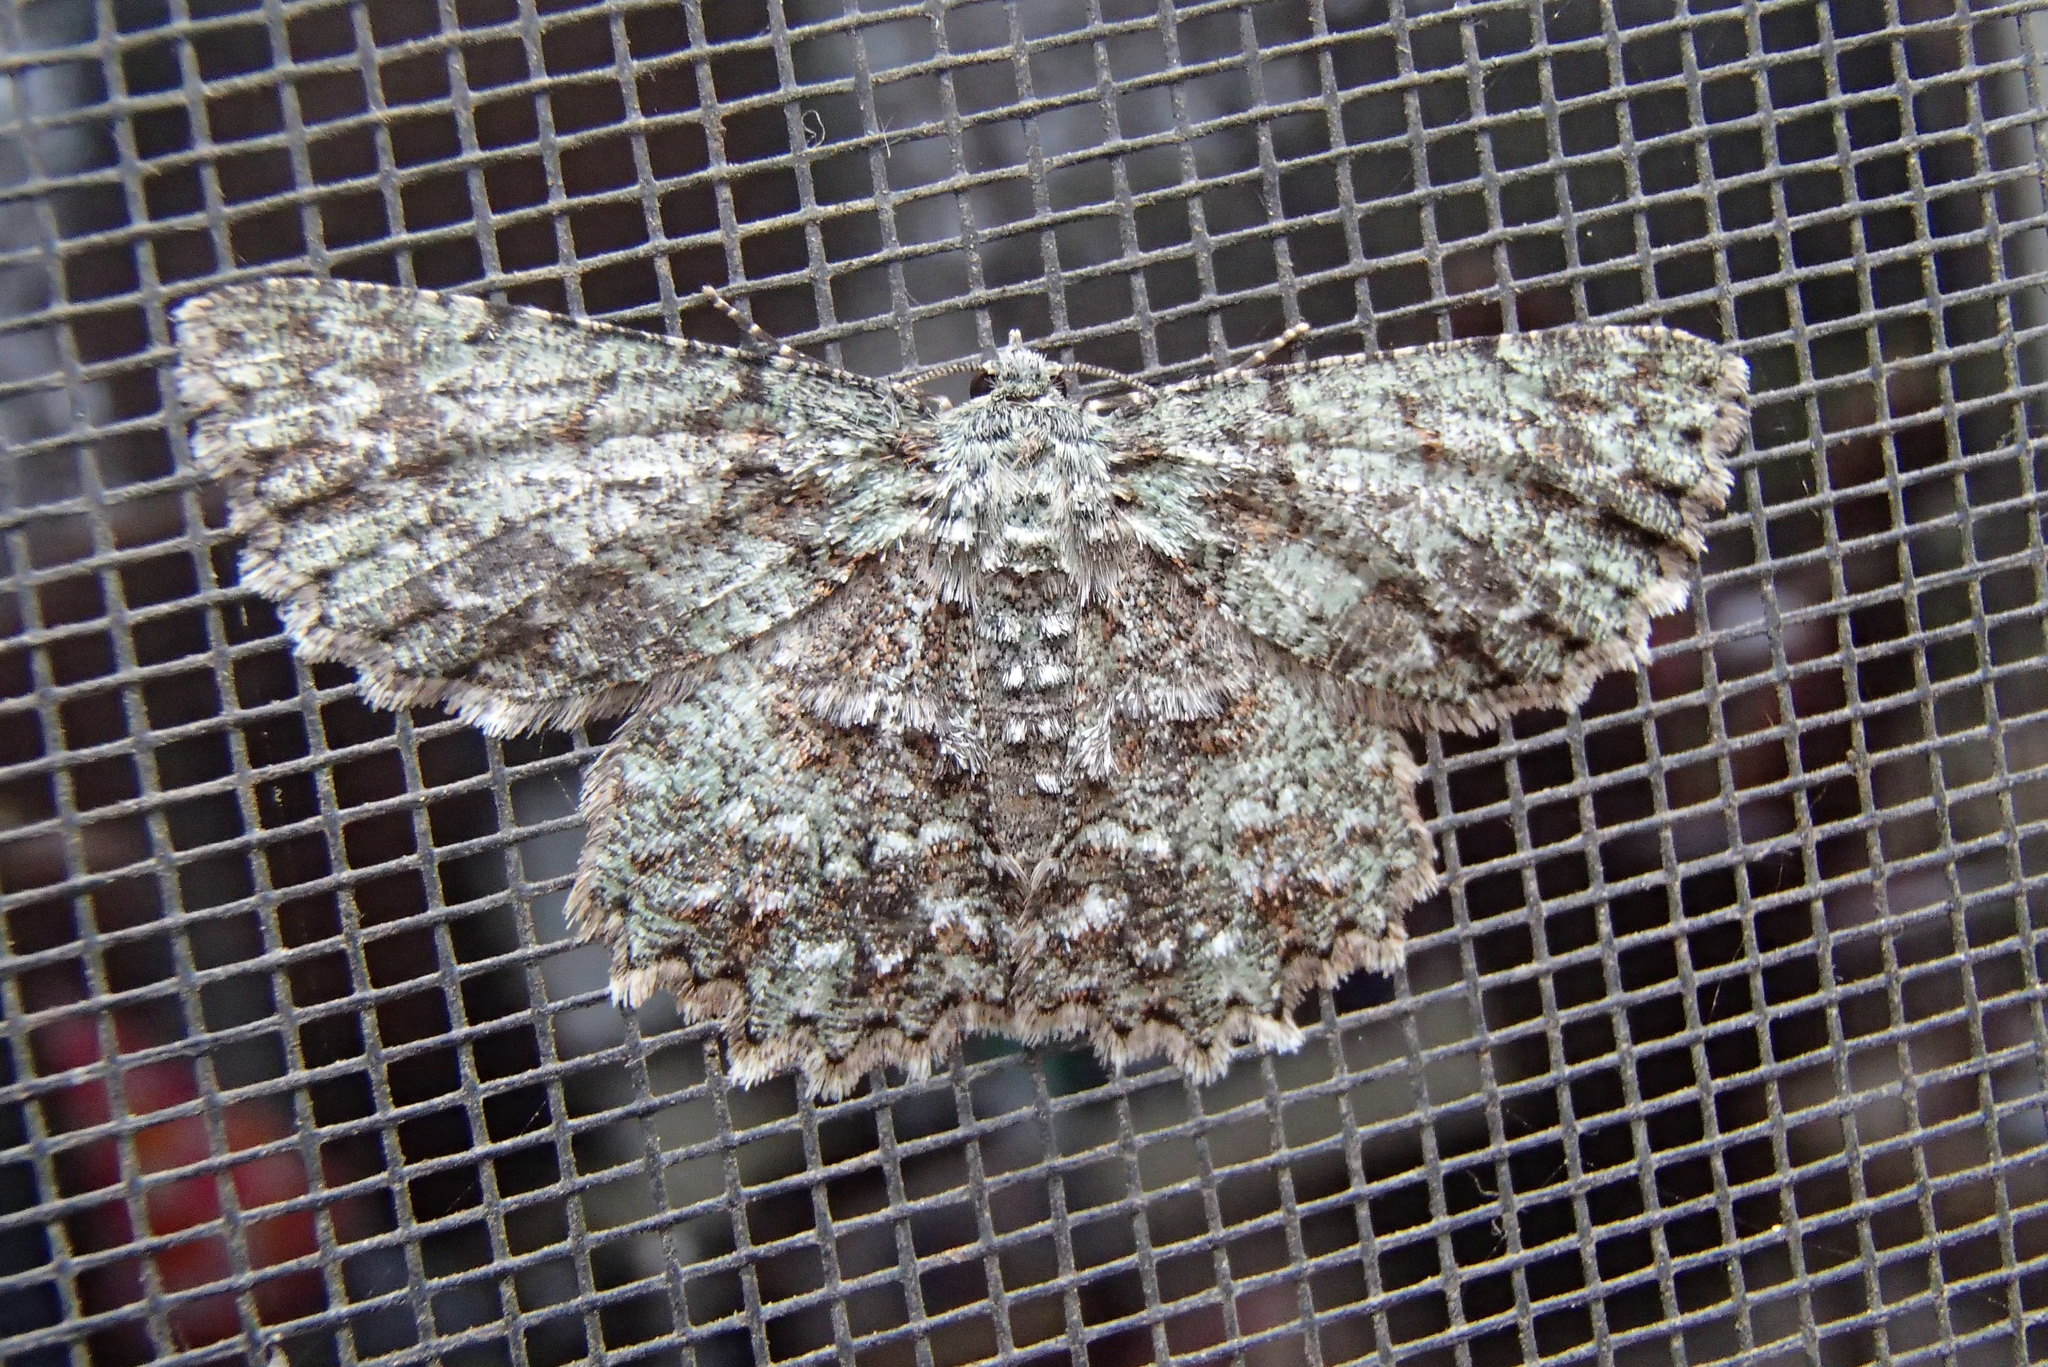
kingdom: Animalia
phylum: Arthropoda
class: Insecta
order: Lepidoptera
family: Geometridae
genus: Hypodoxa
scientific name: Hypodoxa muscosaria
